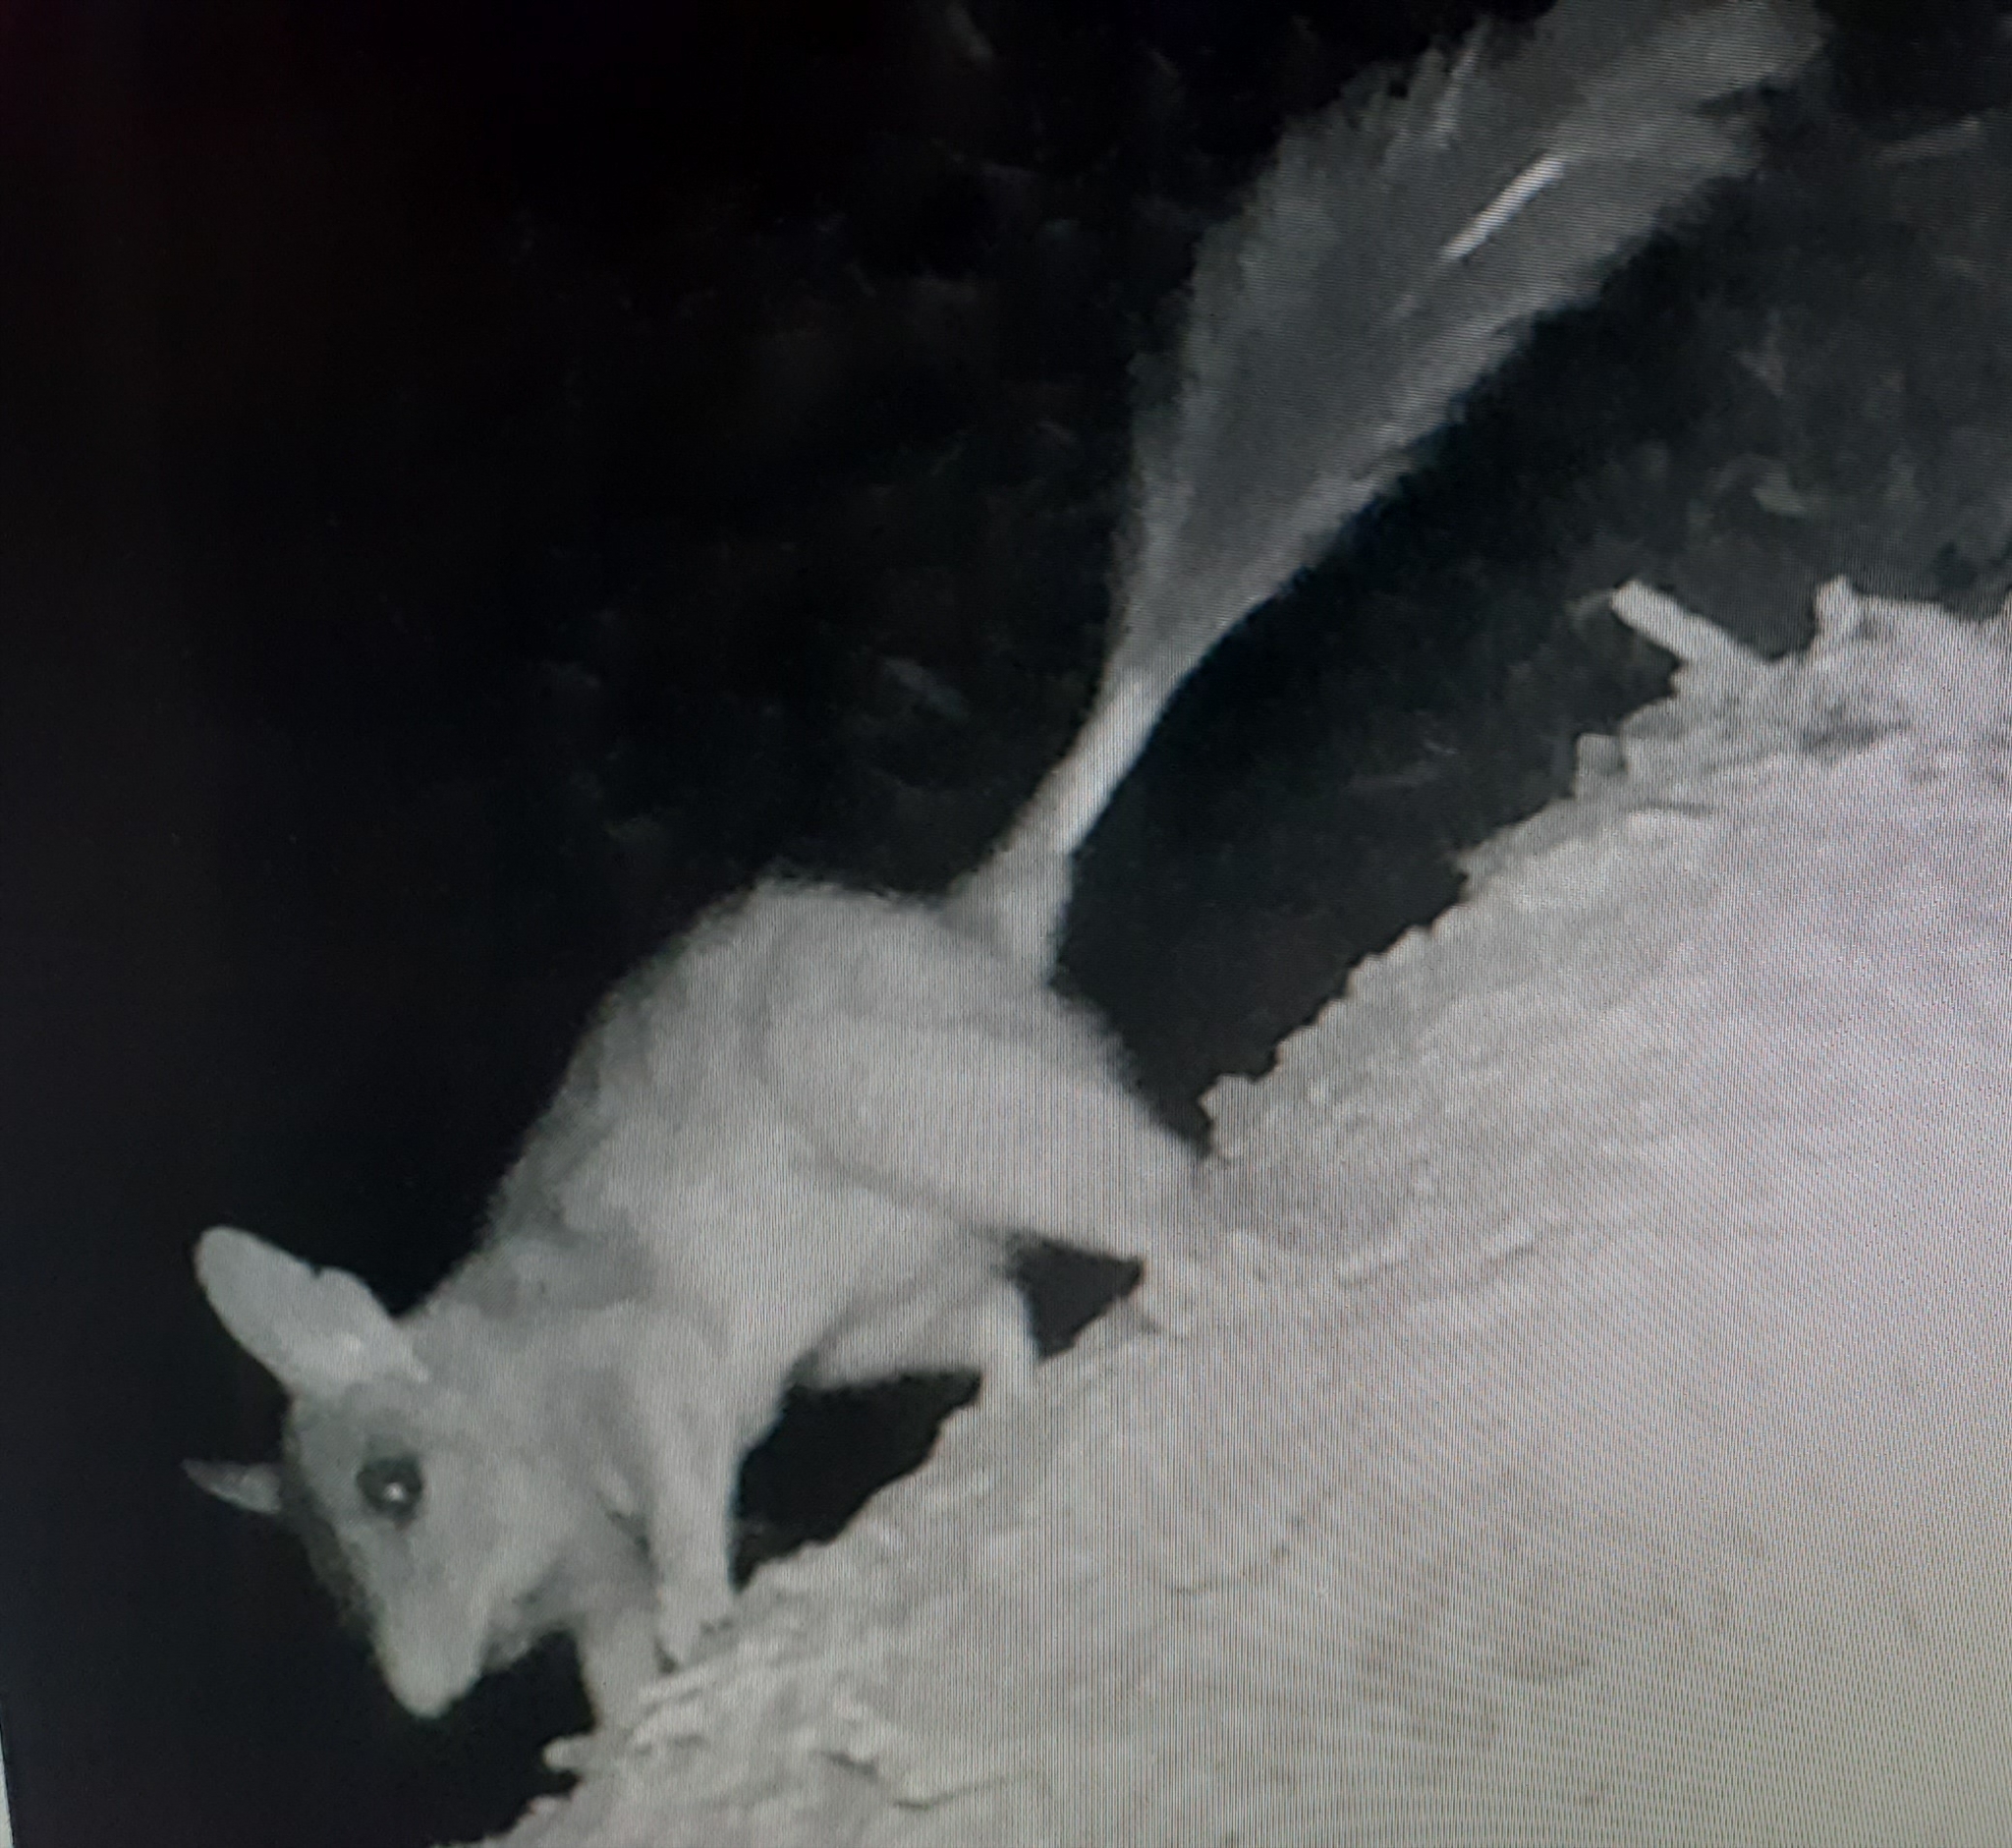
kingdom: Animalia
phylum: Chordata
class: Mammalia
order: Dasyuromorphia
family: Dasyuridae
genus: Phascogale
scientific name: Phascogale tapoatafa
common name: Brush-tailed phascogale
